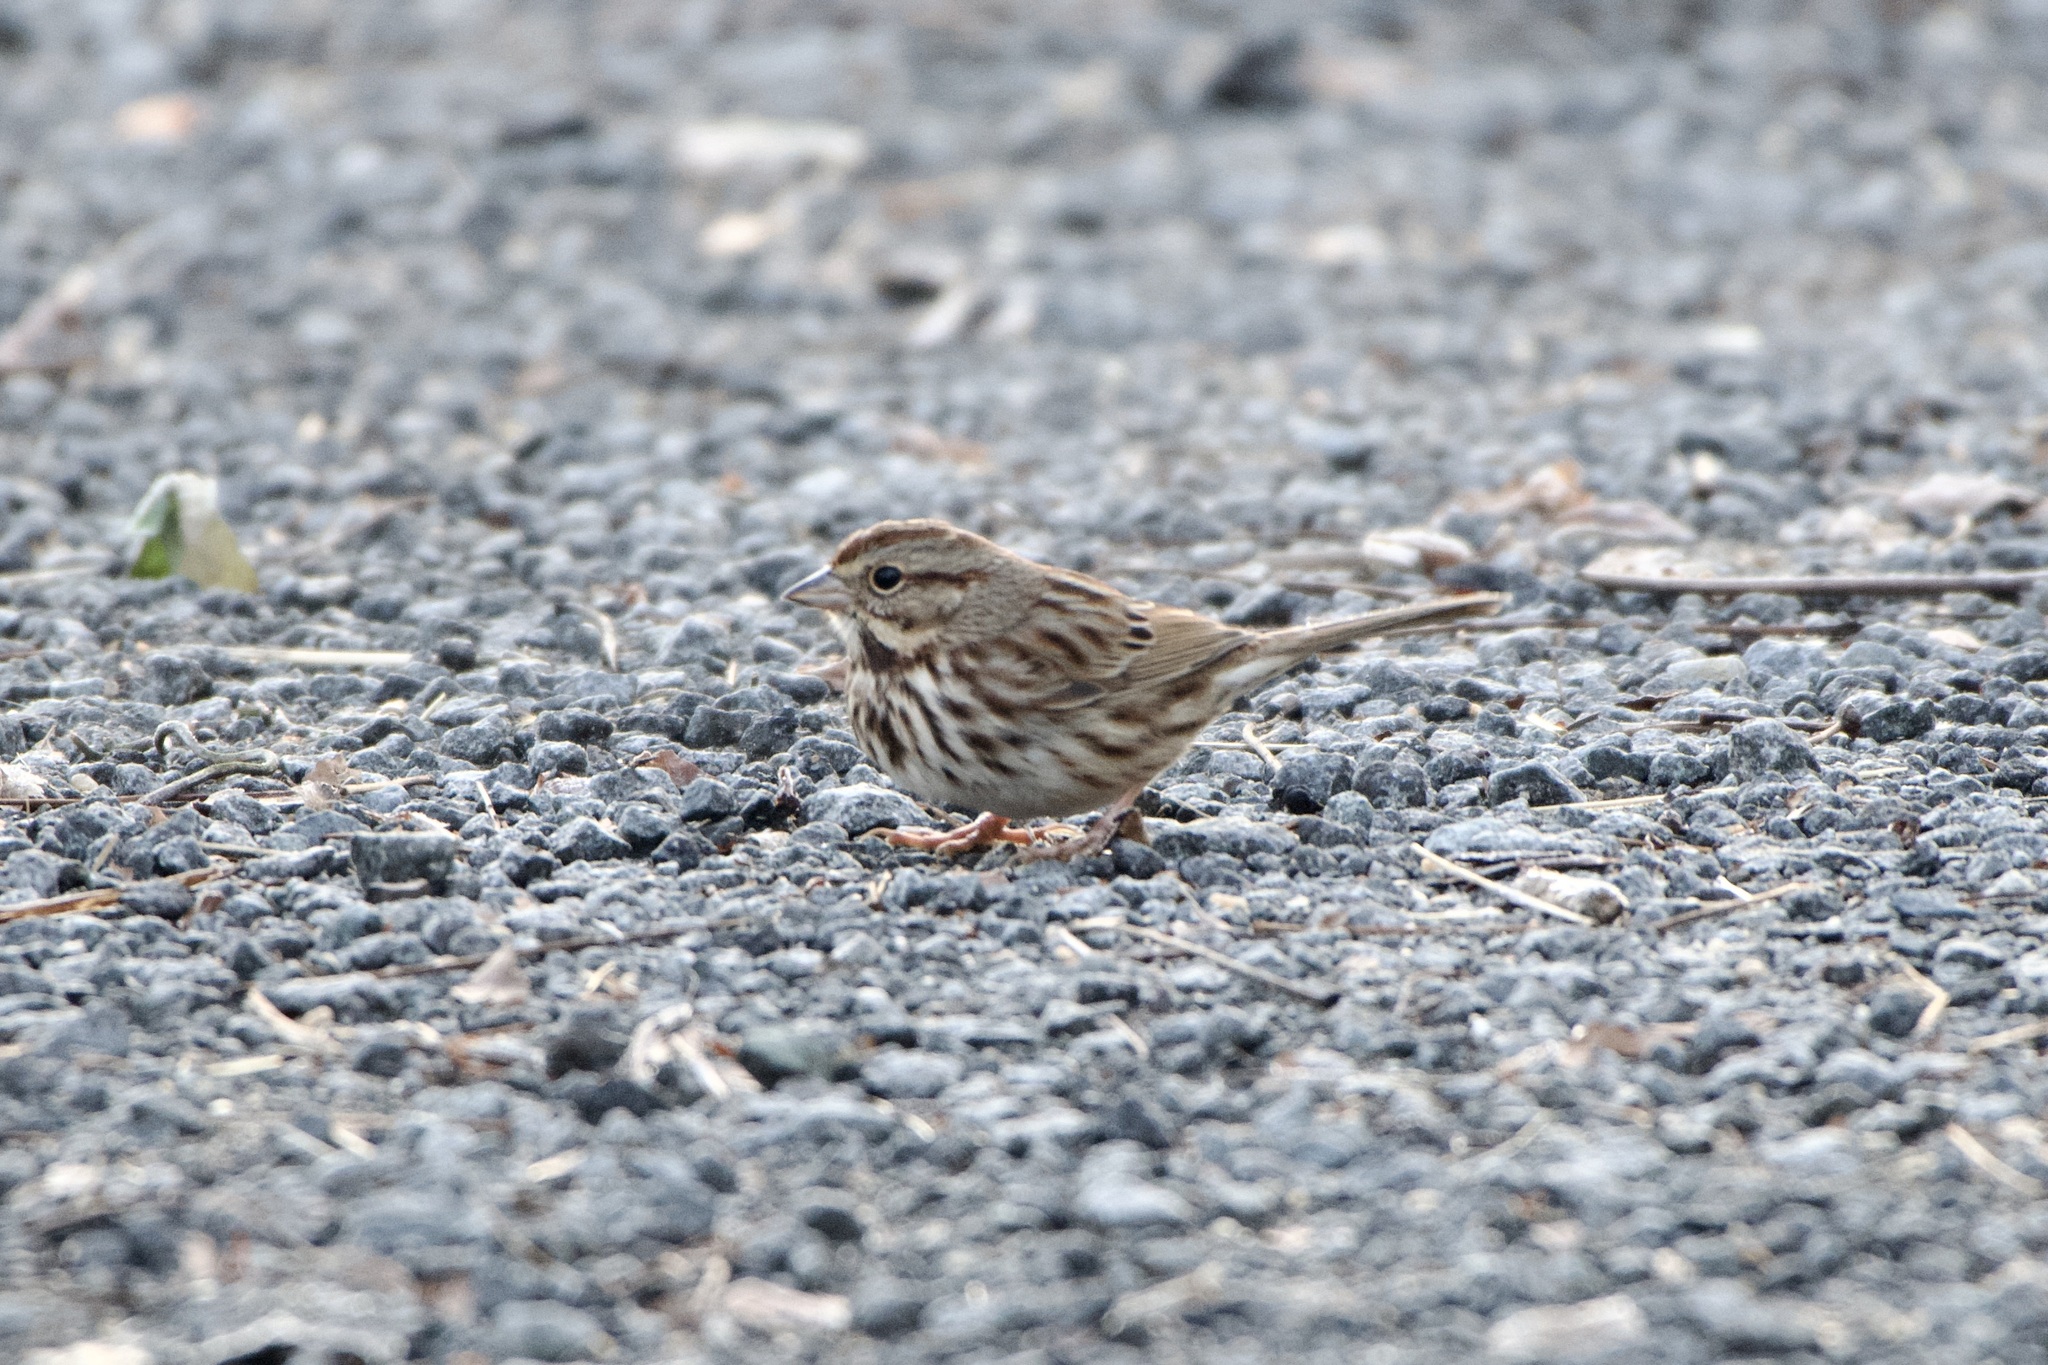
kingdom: Animalia
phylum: Chordata
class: Aves
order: Passeriformes
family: Passerellidae
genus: Melospiza
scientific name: Melospiza melodia
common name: Song sparrow
